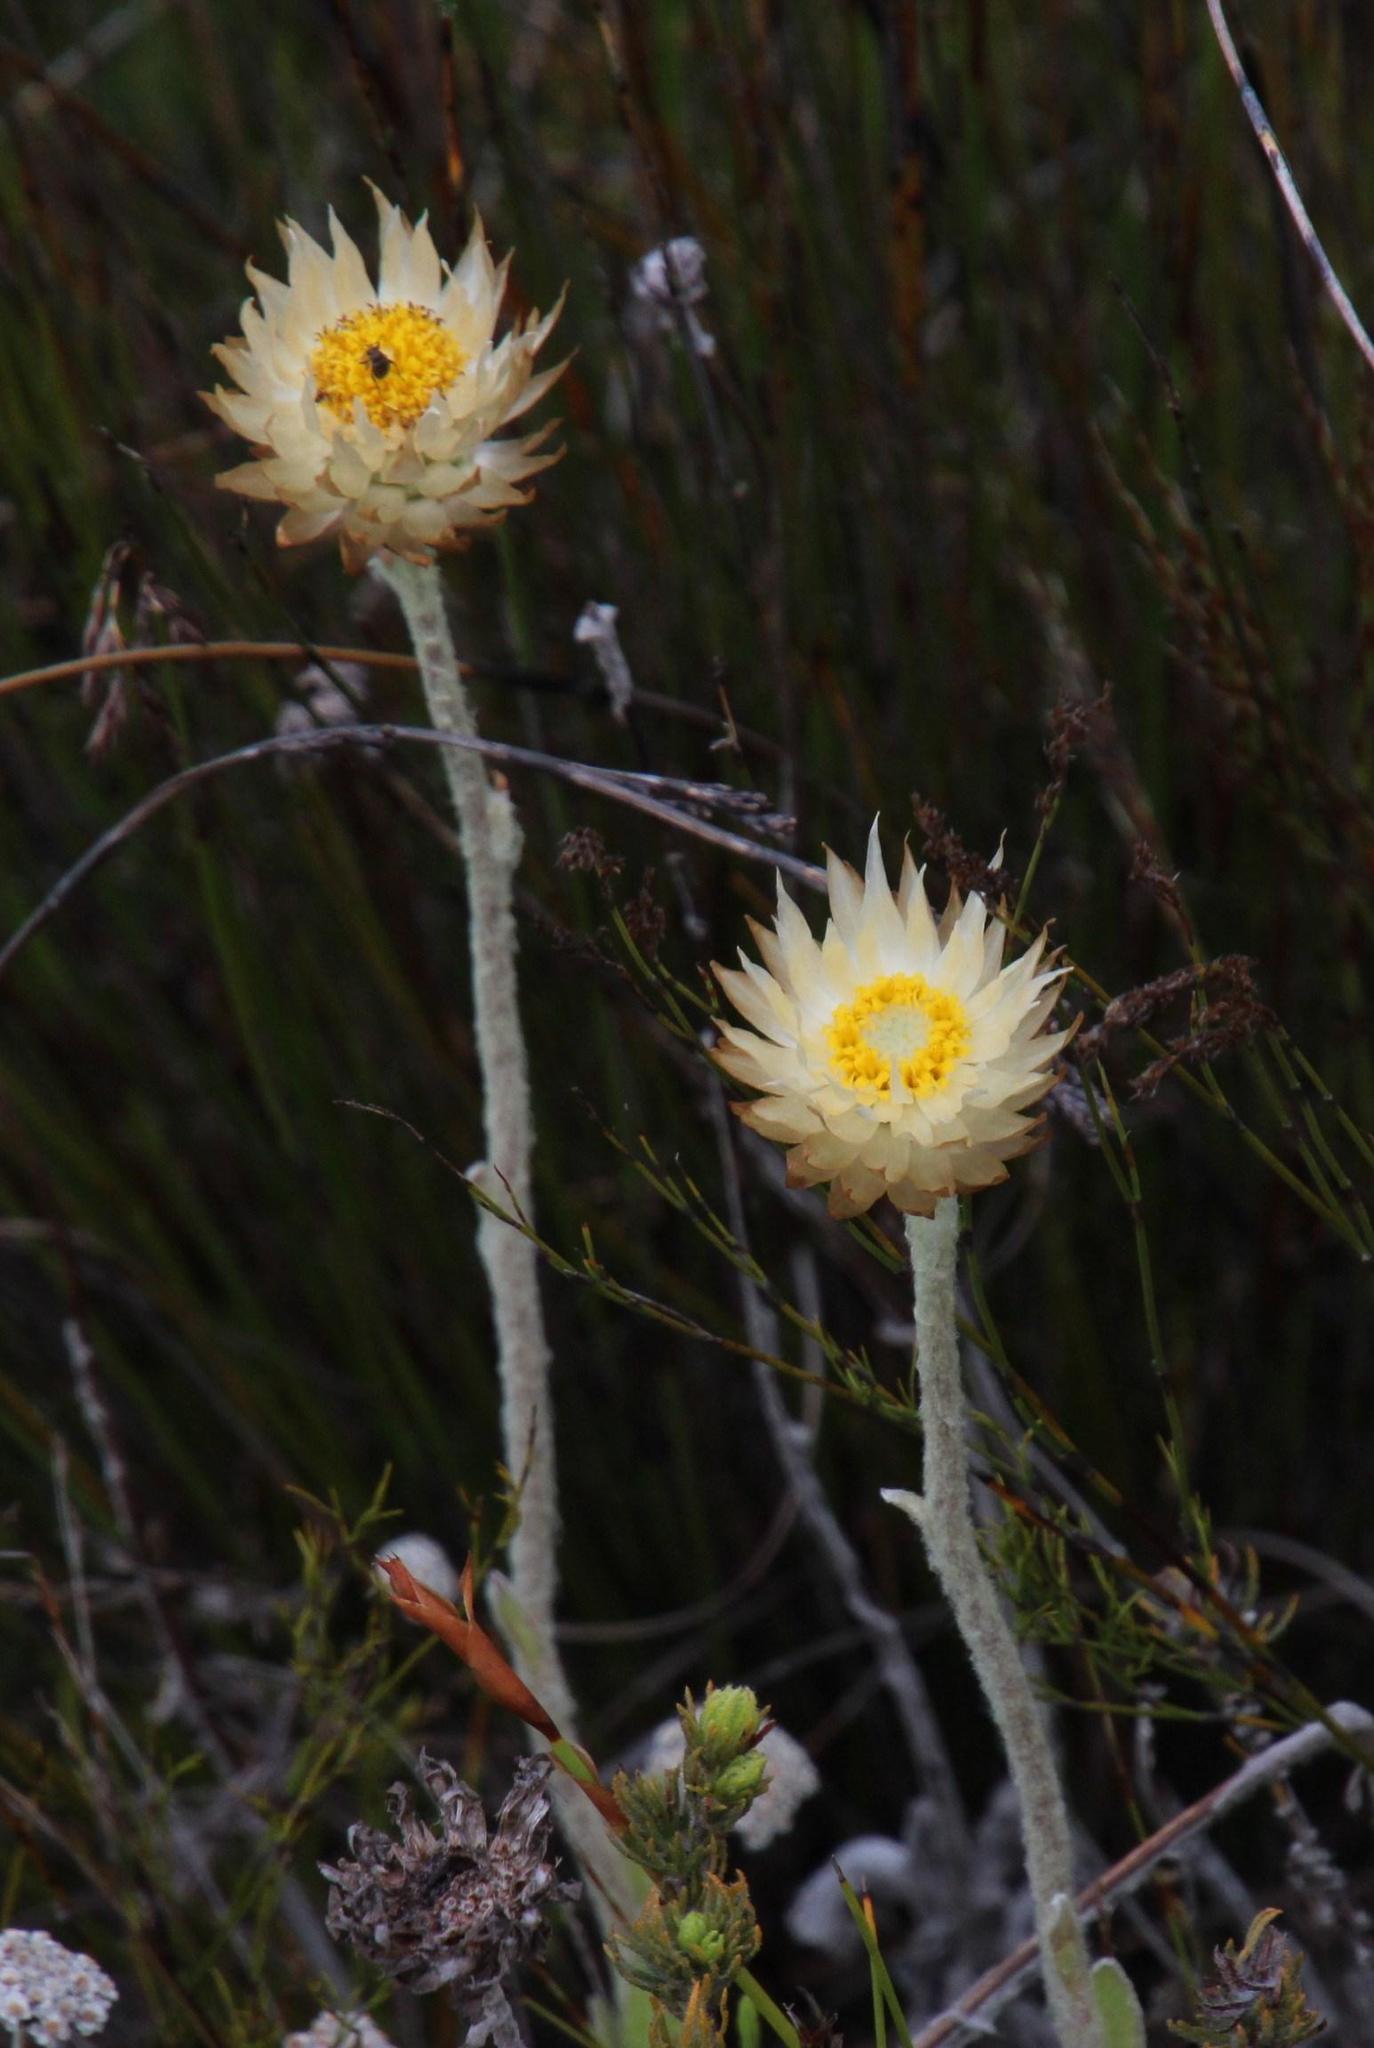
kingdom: Plantae
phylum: Tracheophyta
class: Magnoliopsida
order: Asterales
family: Asteraceae
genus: Syncarpha
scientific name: Syncarpha speciosissima
